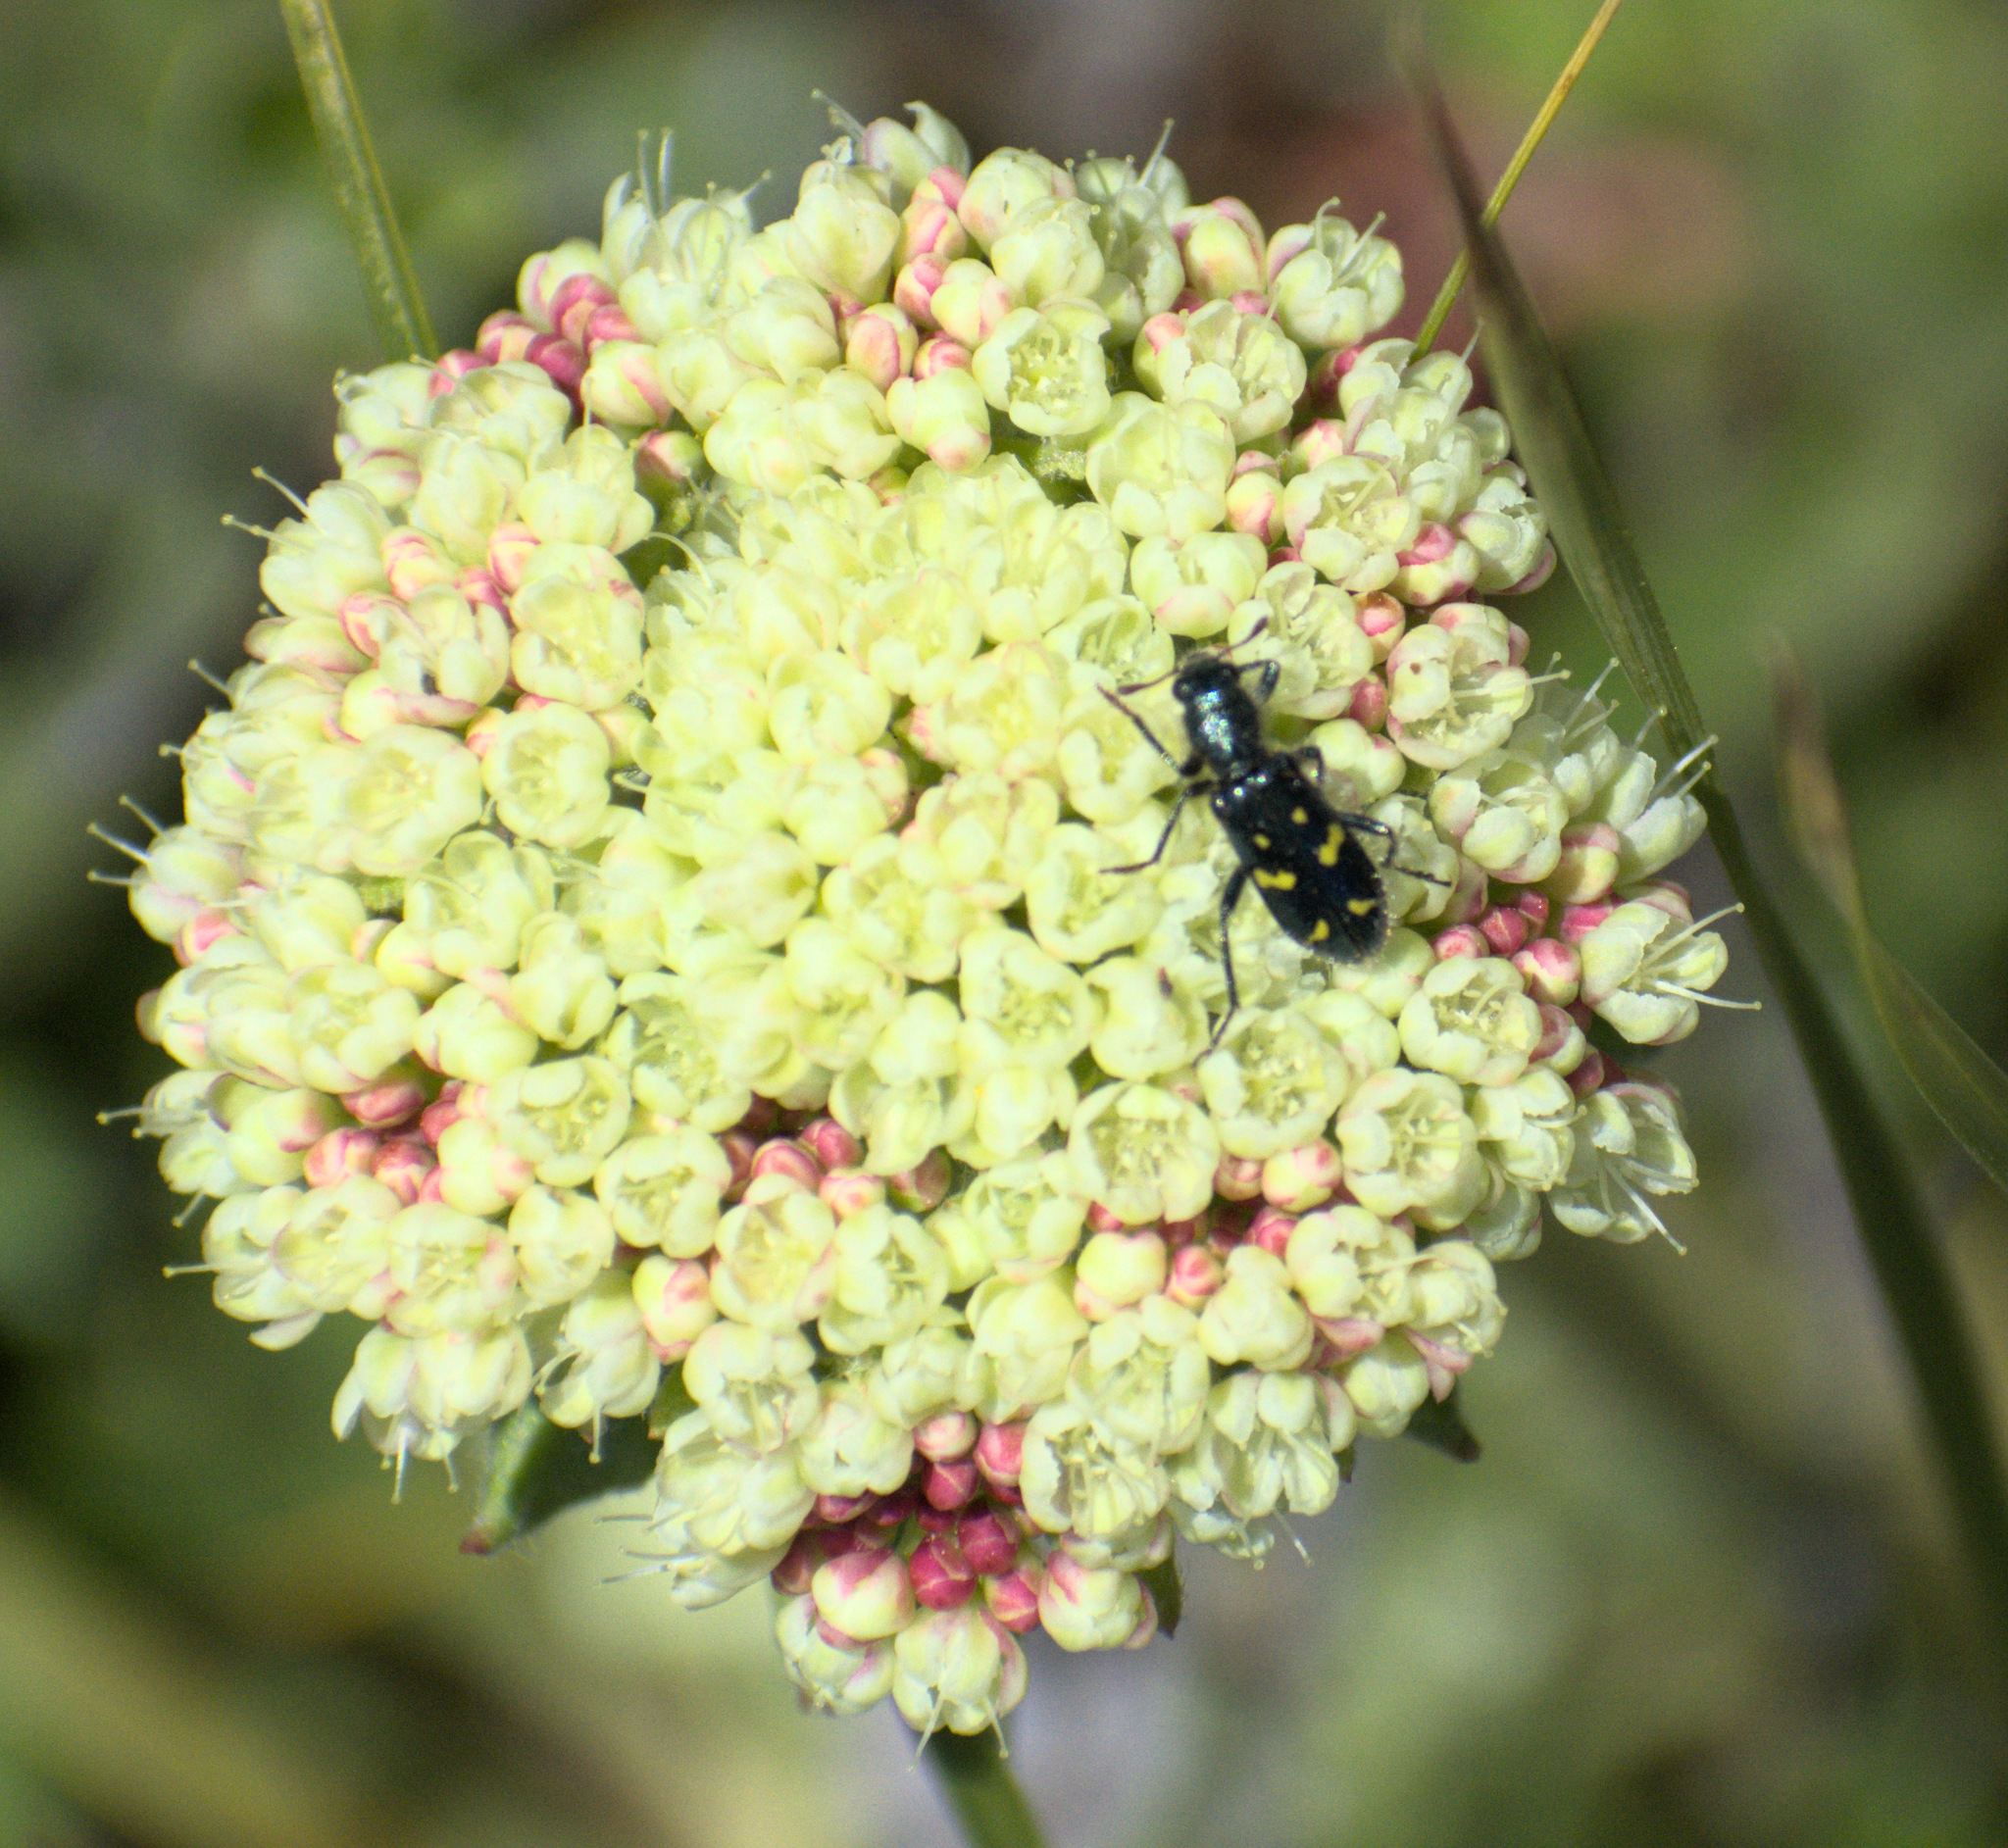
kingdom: Animalia
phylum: Arthropoda
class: Insecta
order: Coleoptera
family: Cleridae
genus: Trichodes
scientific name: Trichodes ornatus
